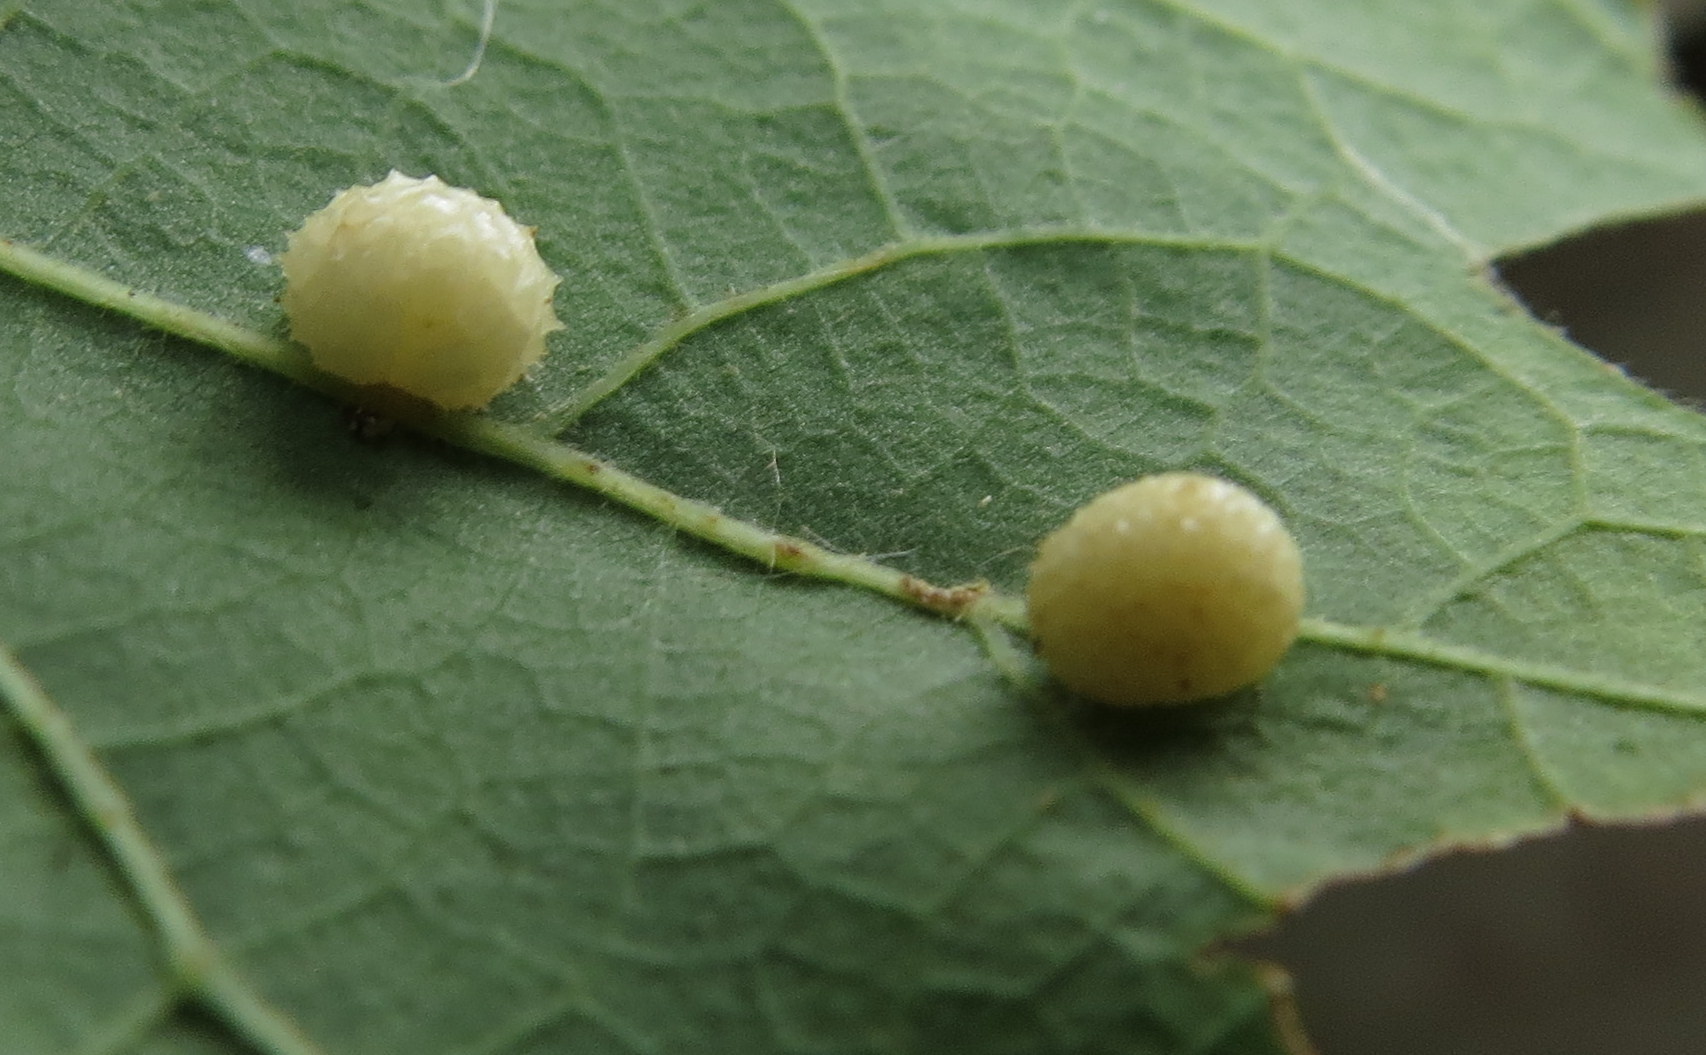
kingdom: Animalia
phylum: Arthropoda
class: Insecta
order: Hymenoptera
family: Cynipidae
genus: Acraspis
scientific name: Acraspis quercushirta
